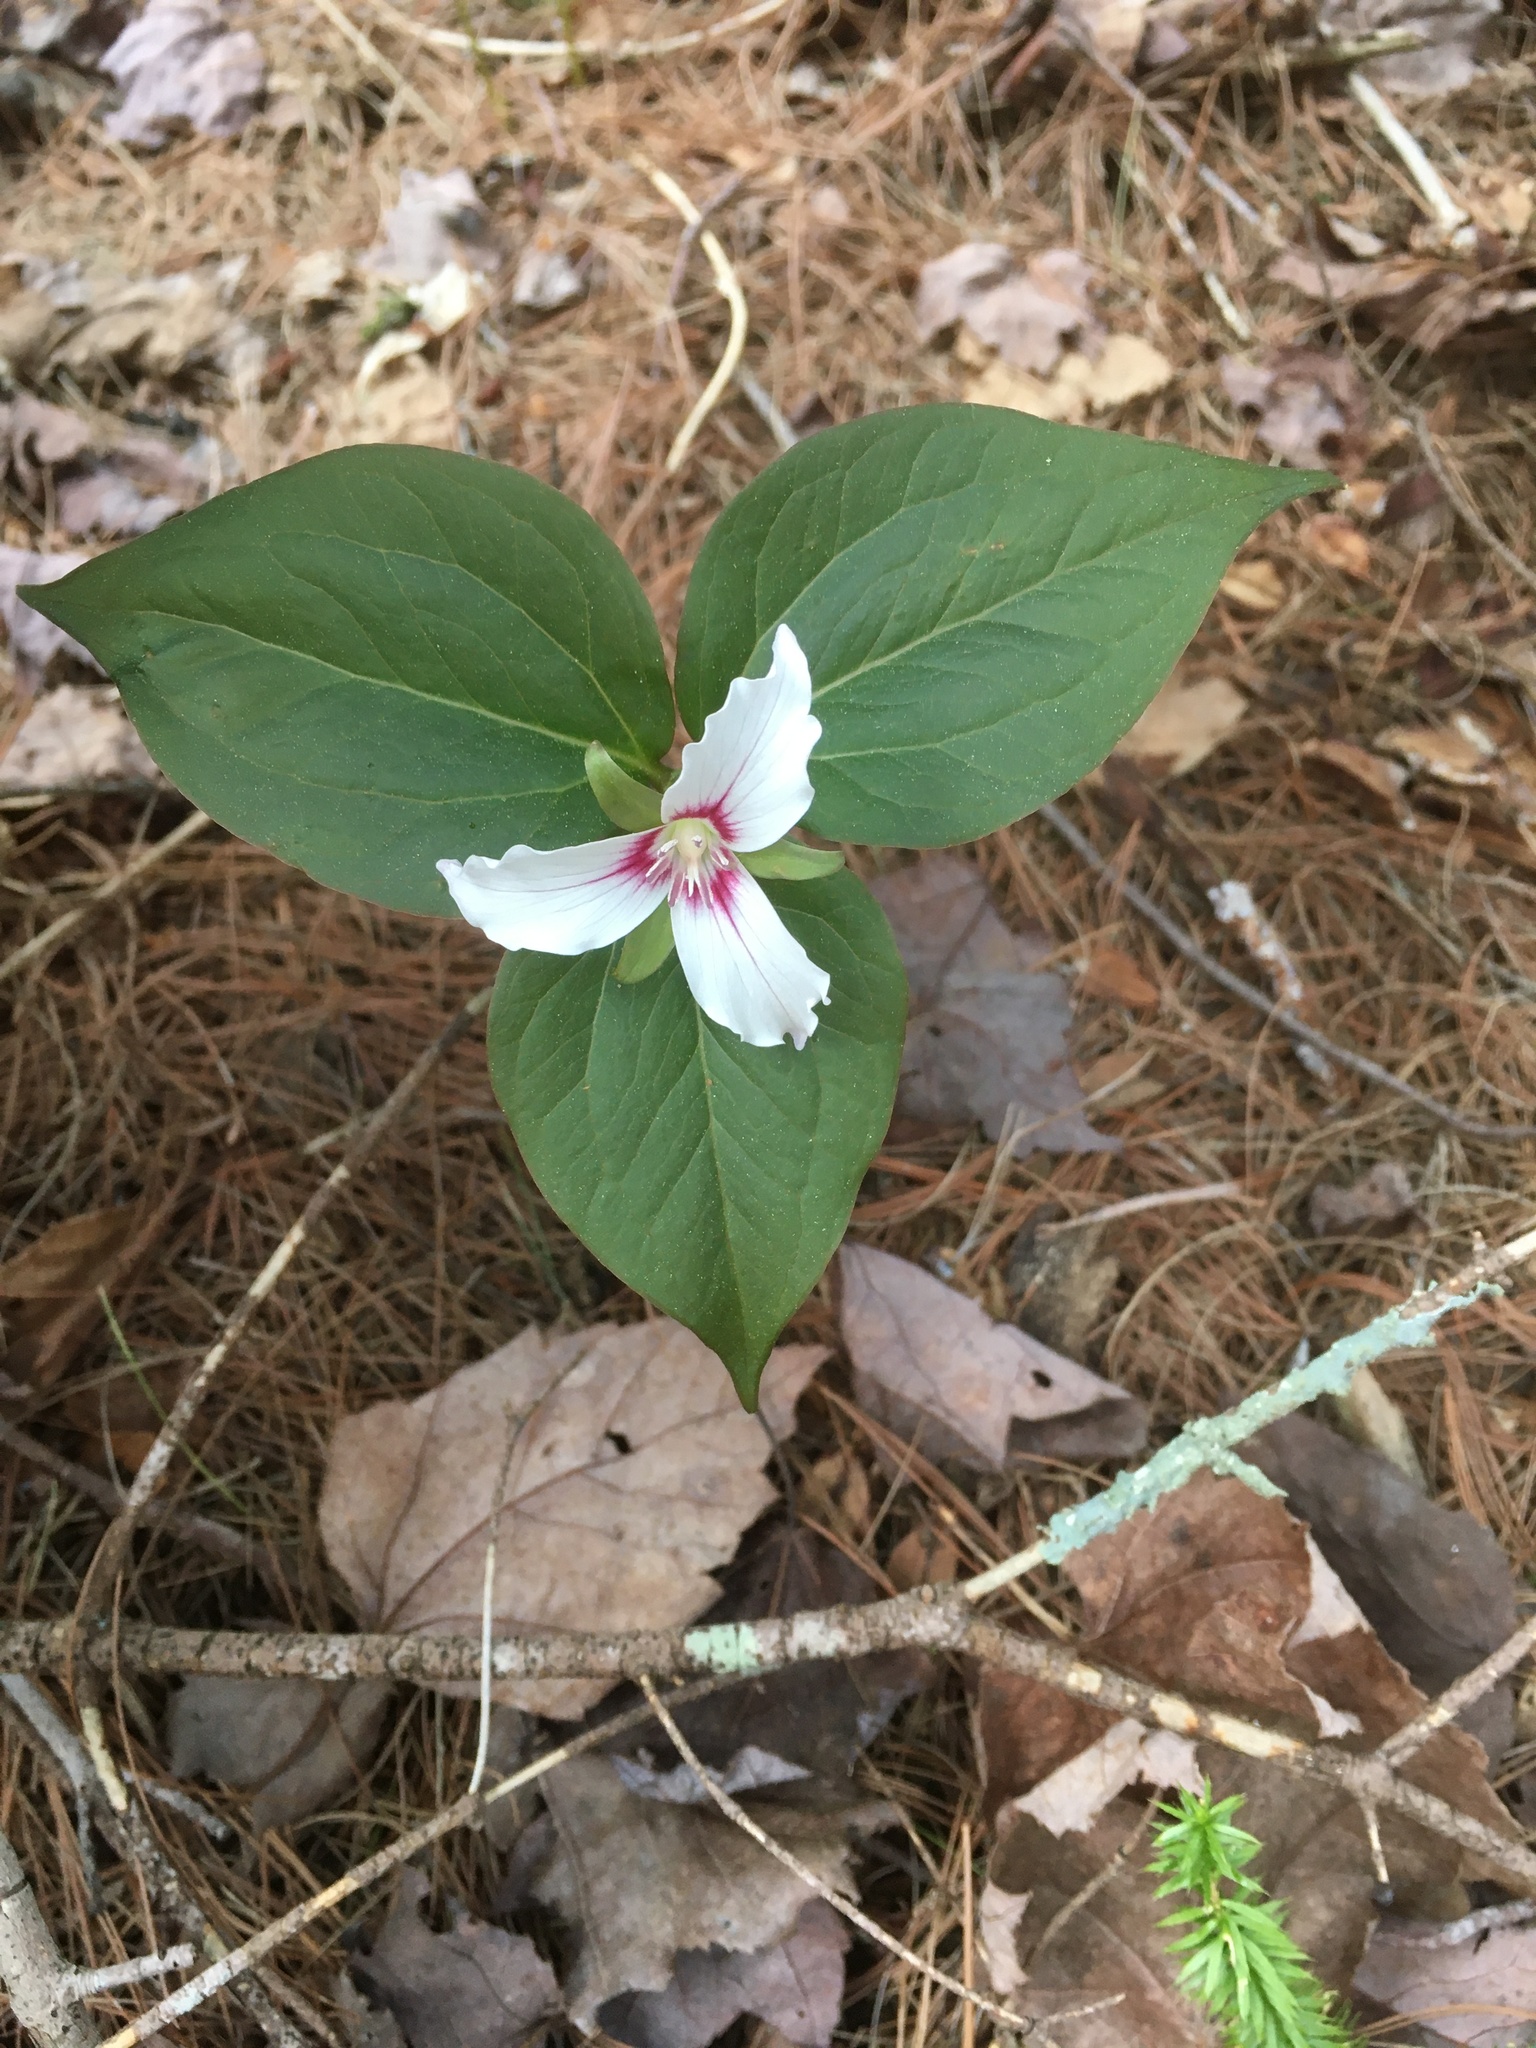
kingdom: Plantae
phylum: Tracheophyta
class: Liliopsida
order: Liliales
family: Melanthiaceae
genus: Trillium
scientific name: Trillium undulatum
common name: Paint trillium
